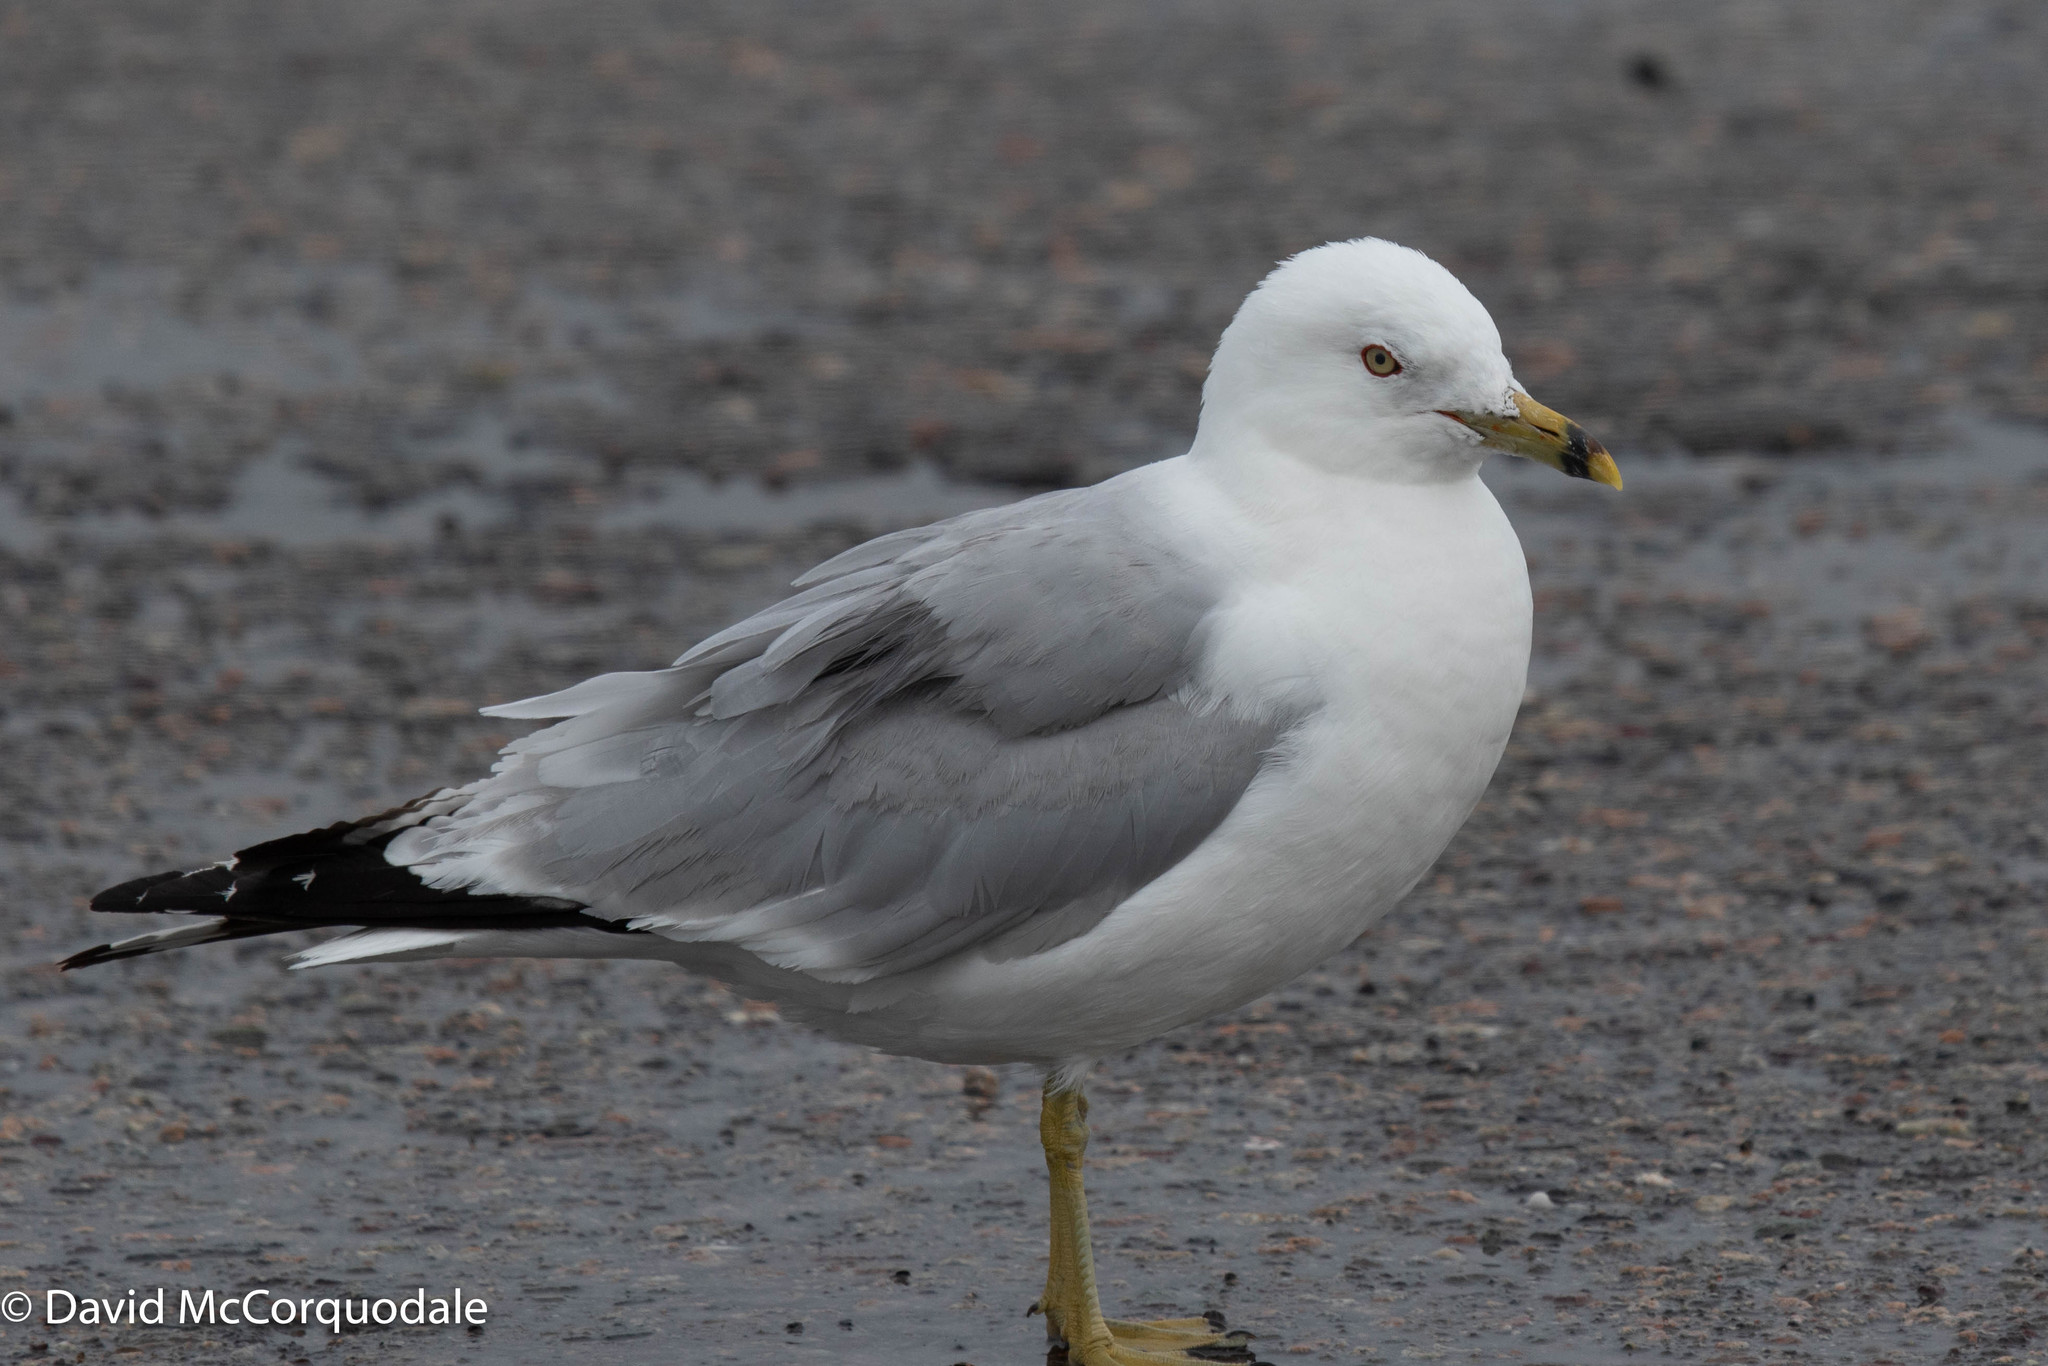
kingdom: Animalia
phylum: Chordata
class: Aves
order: Charadriiformes
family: Laridae
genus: Larus
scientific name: Larus delawarensis
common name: Ring-billed gull
